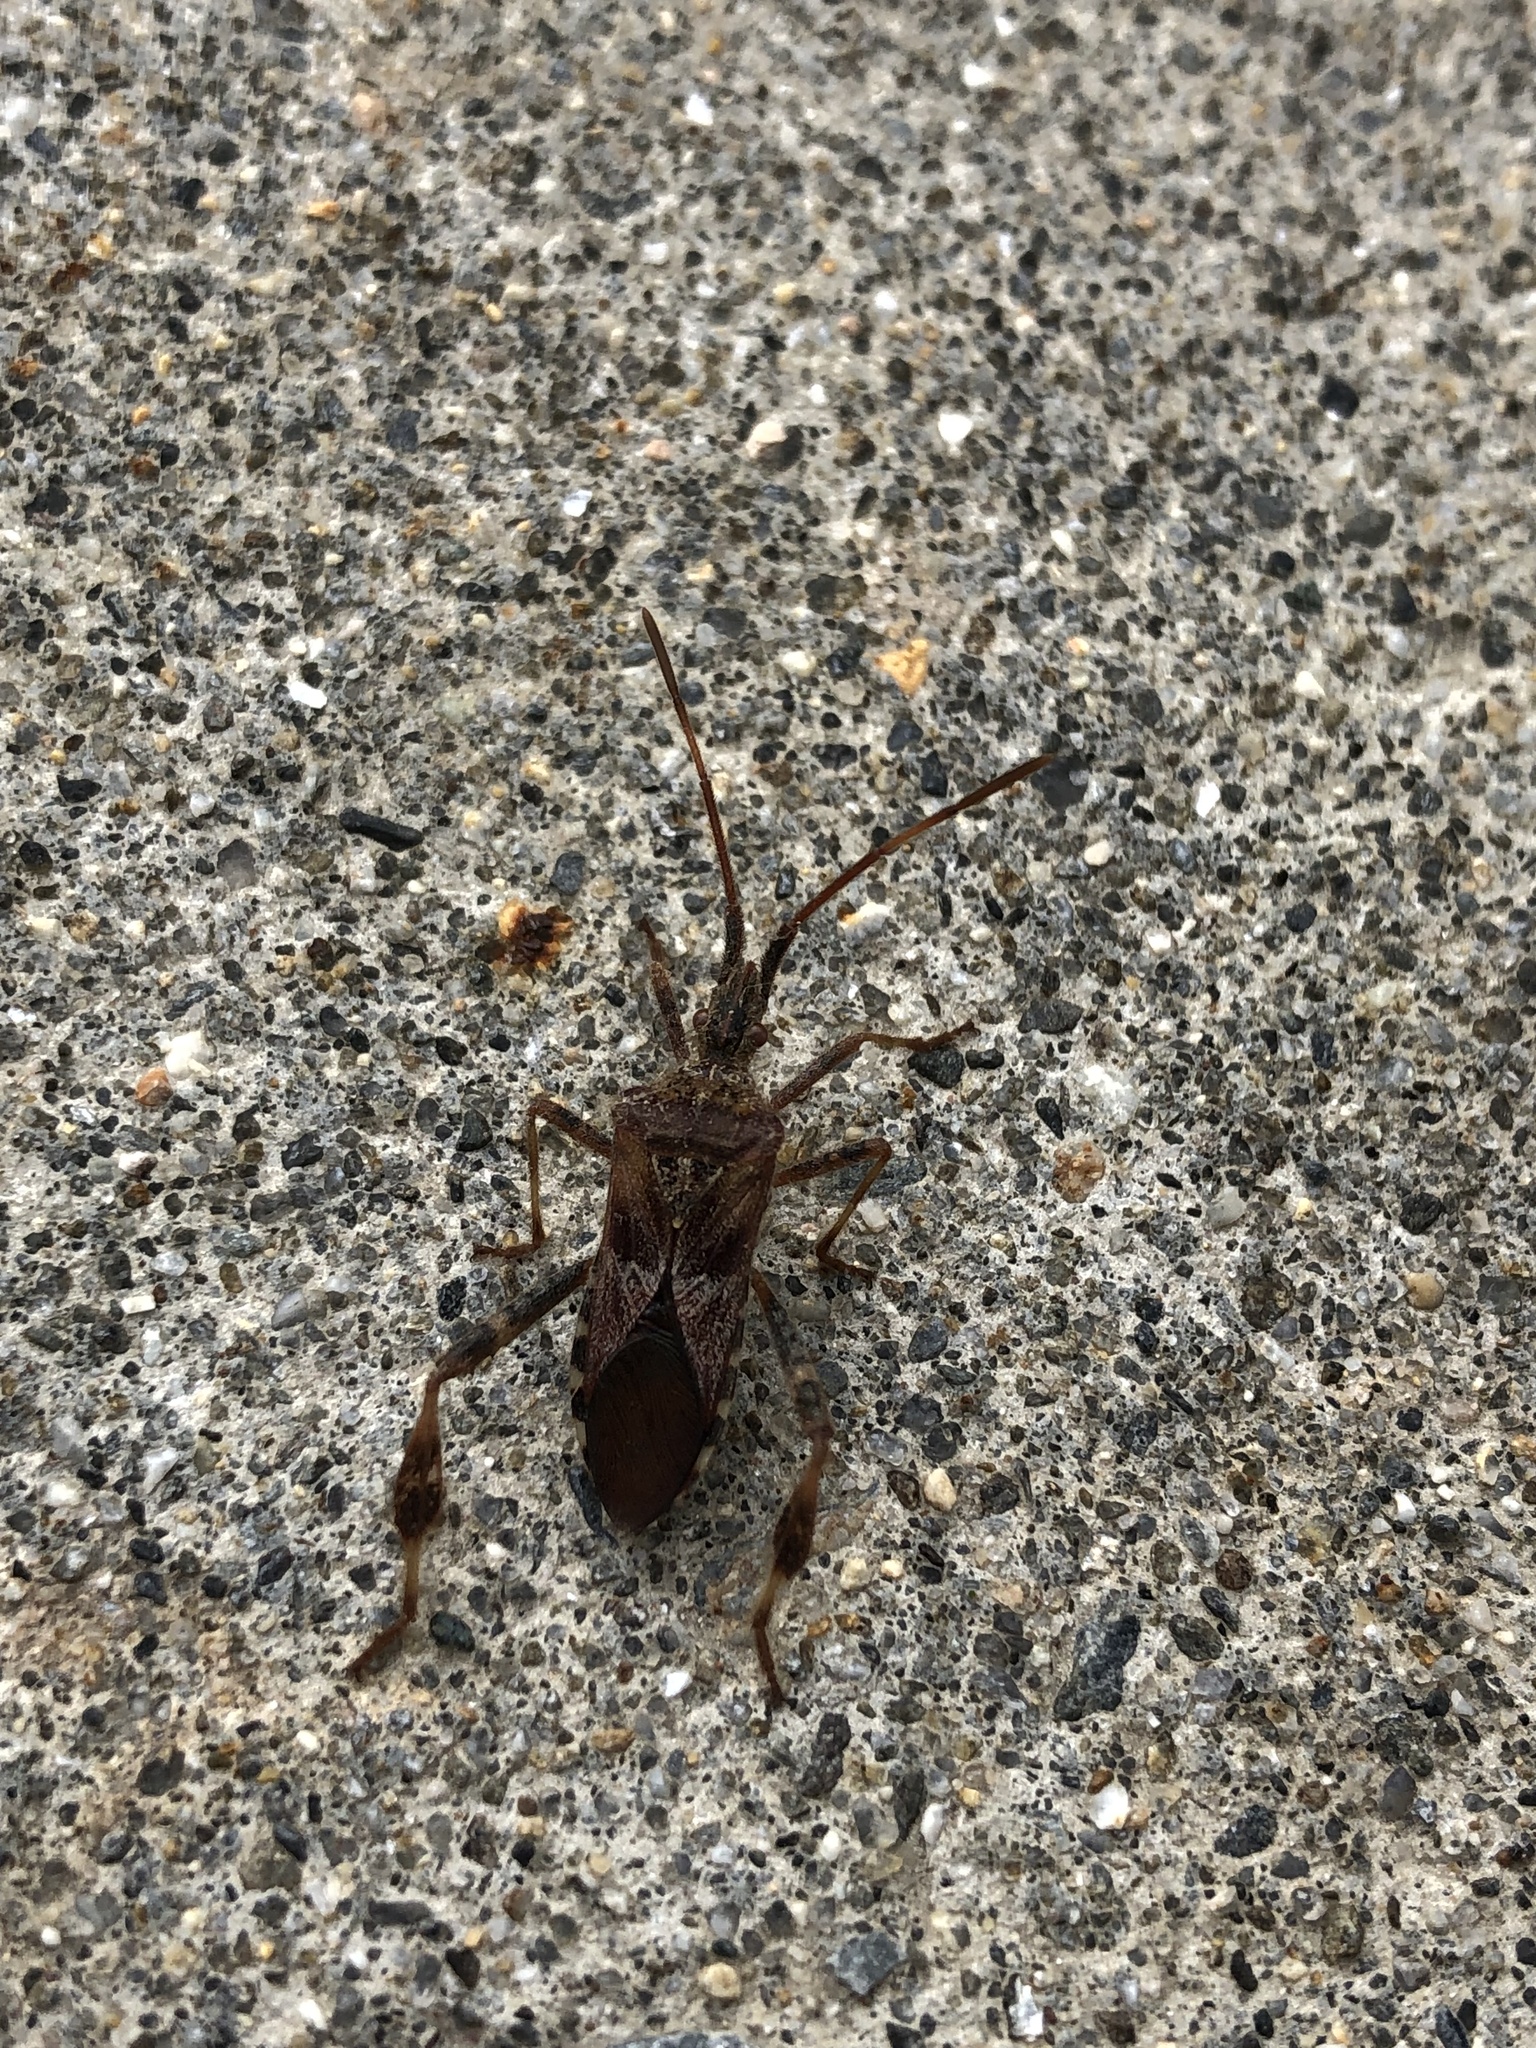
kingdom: Animalia
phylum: Arthropoda
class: Insecta
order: Hemiptera
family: Coreidae
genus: Leptoglossus
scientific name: Leptoglossus occidentalis
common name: Western conifer-seed bug
